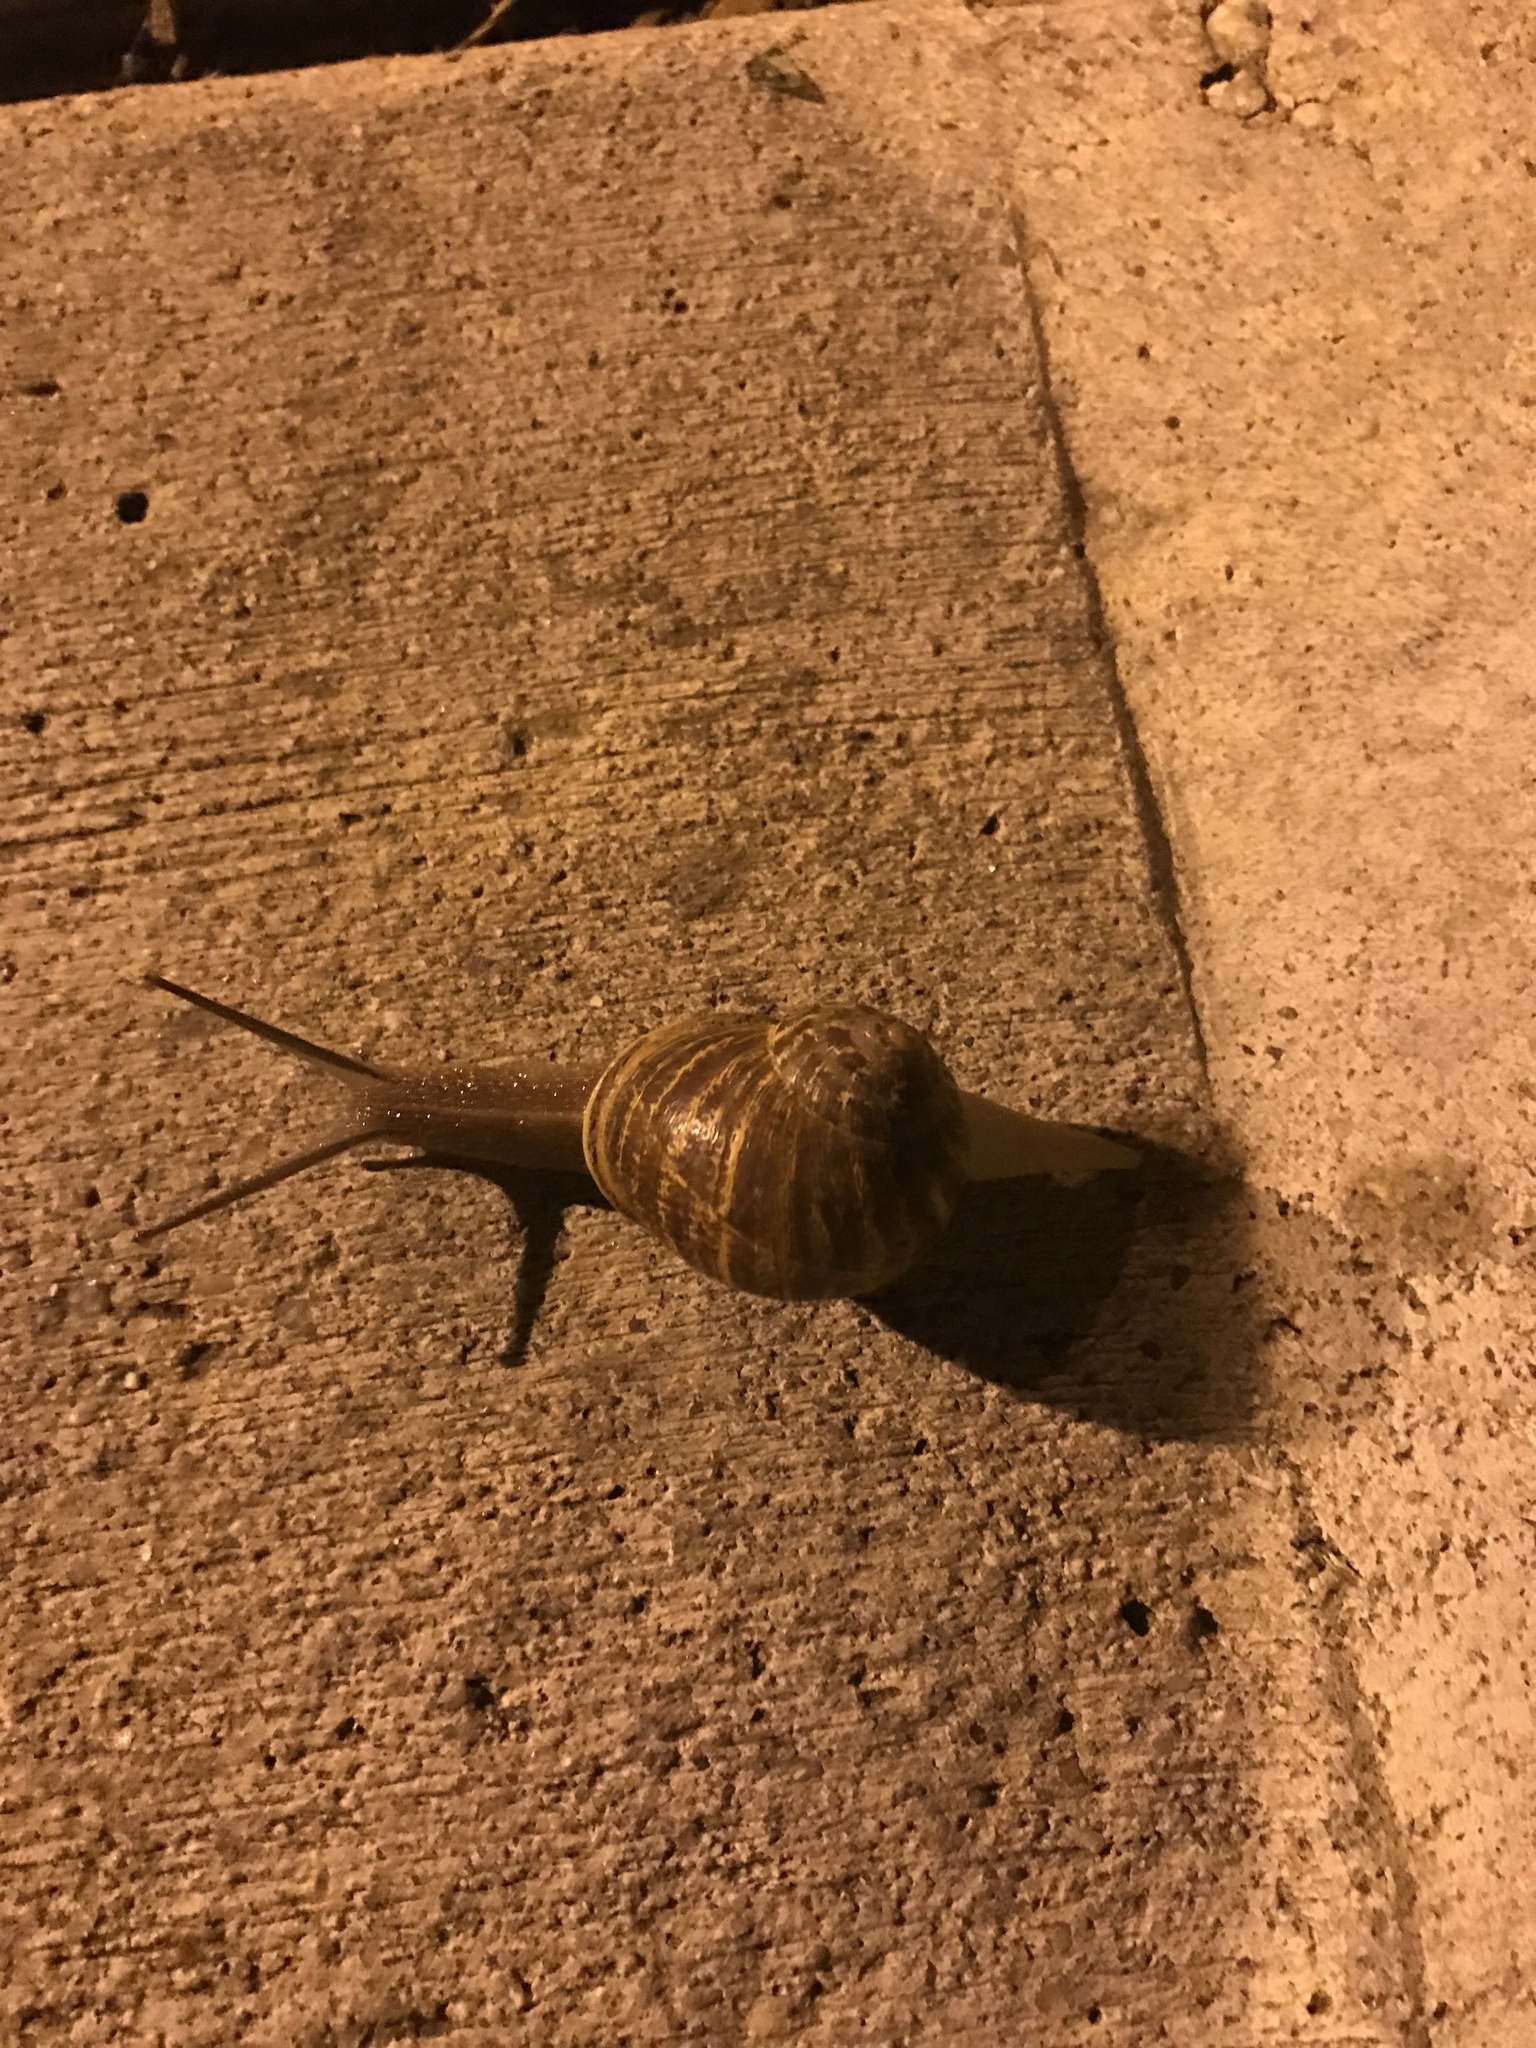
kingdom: Animalia
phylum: Mollusca
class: Gastropoda
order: Stylommatophora
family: Helicidae
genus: Cornu
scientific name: Cornu aspersum
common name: Brown garden snail
